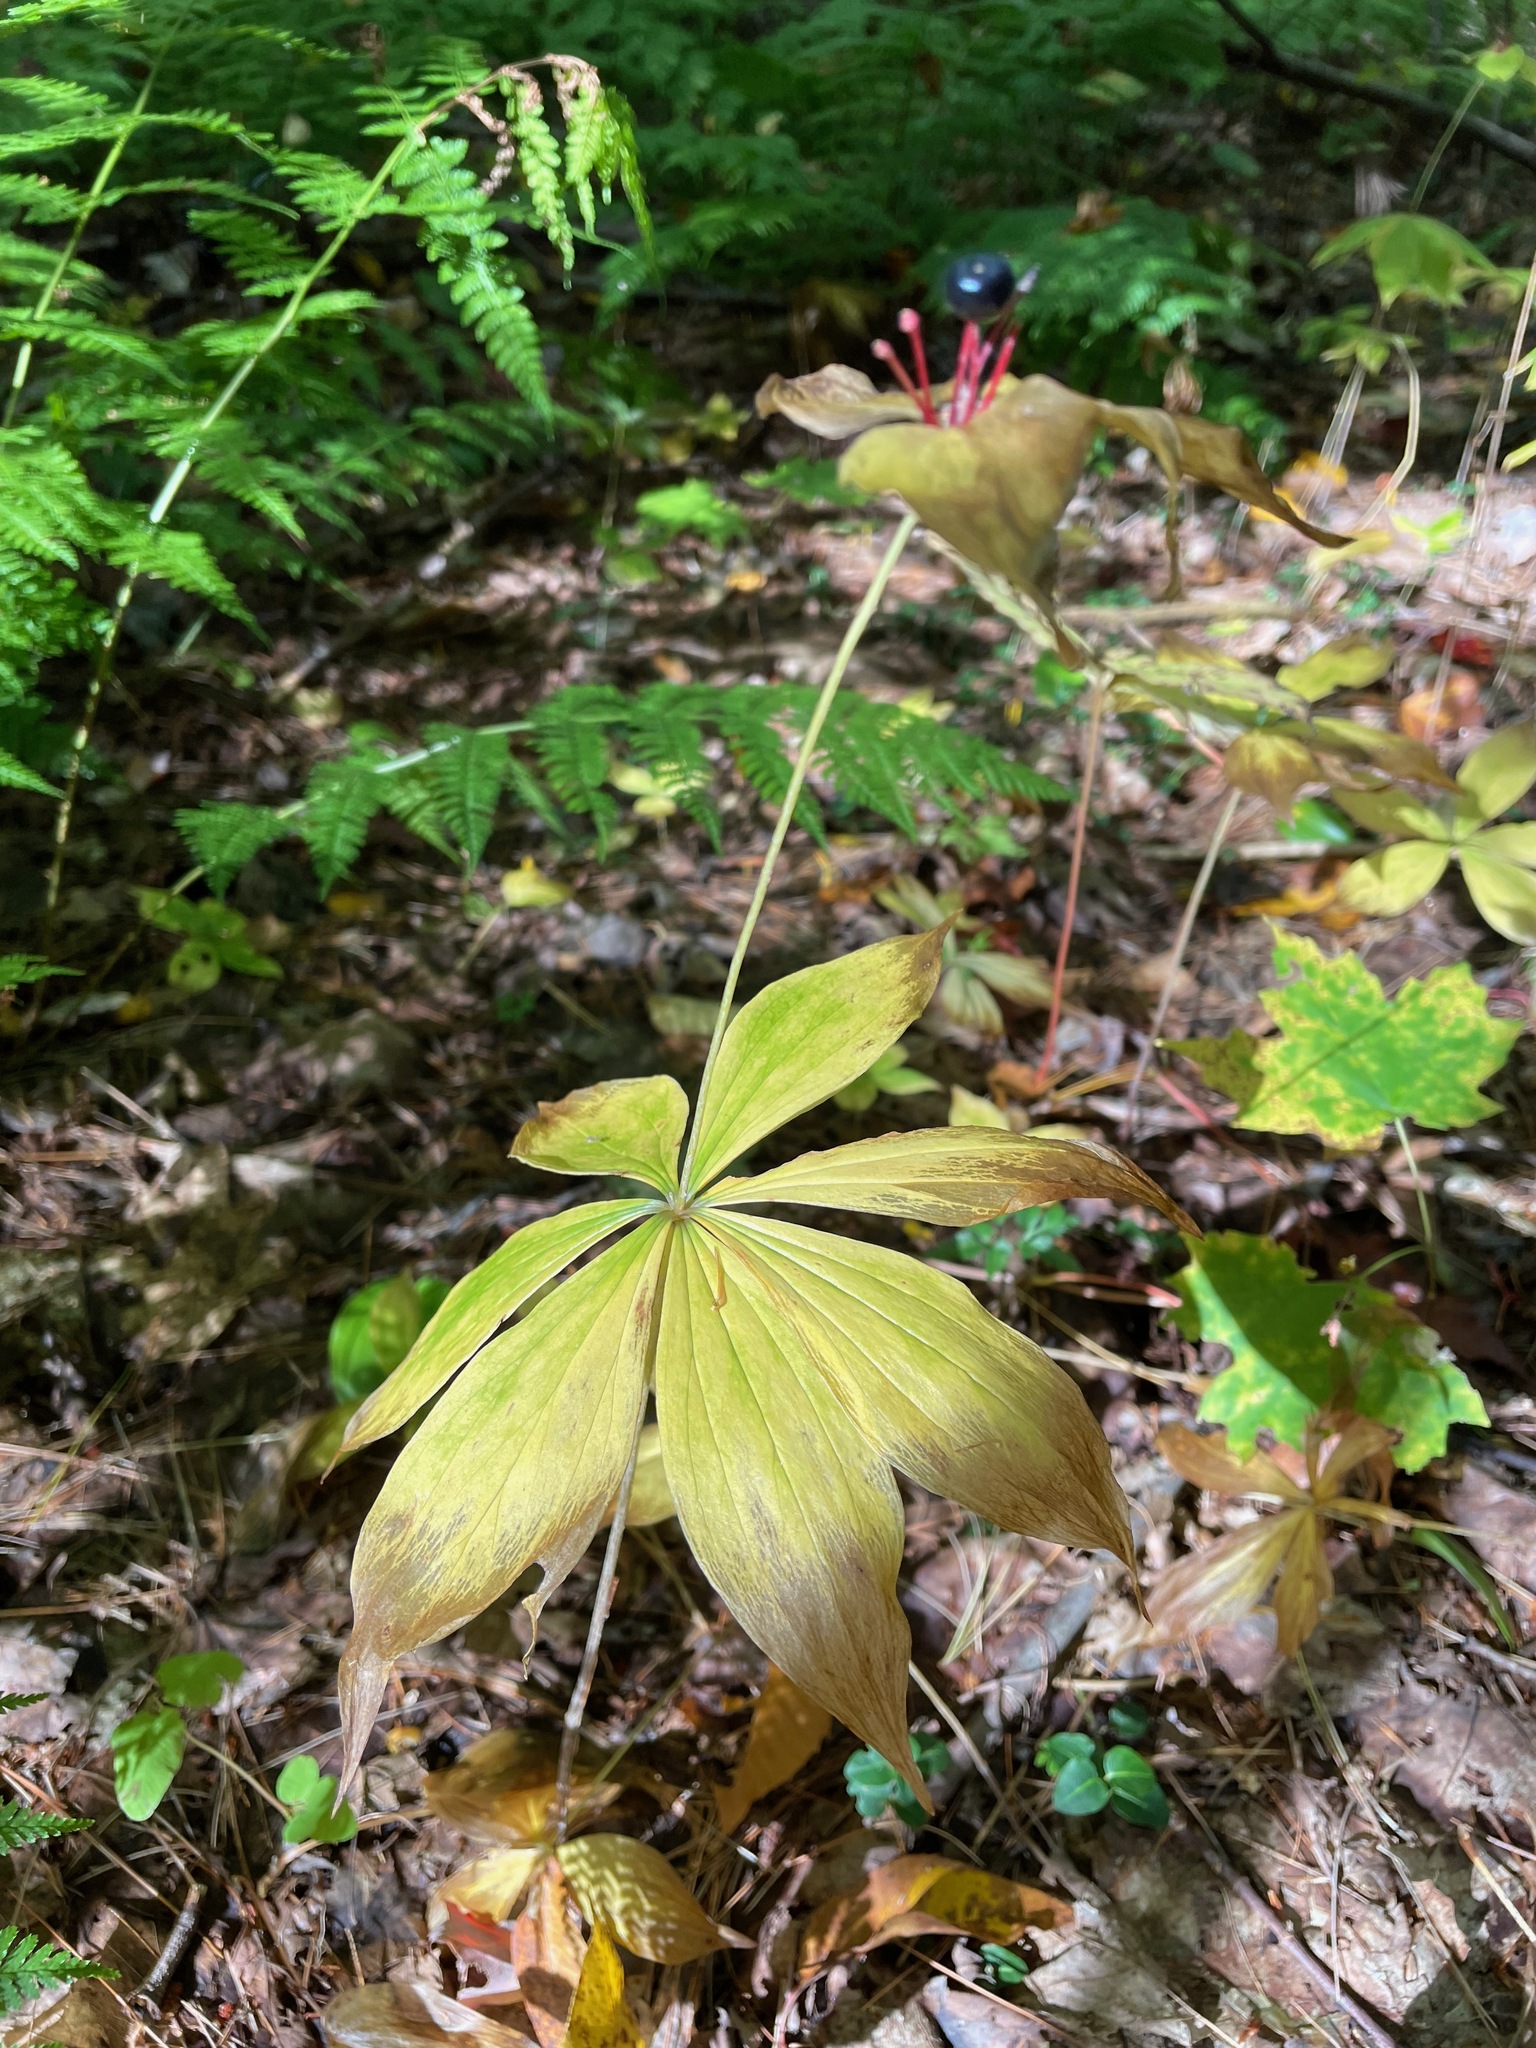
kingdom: Plantae
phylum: Tracheophyta
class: Liliopsida
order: Liliales
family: Liliaceae
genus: Medeola
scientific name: Medeola virginiana
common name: Indian cucumber-root
